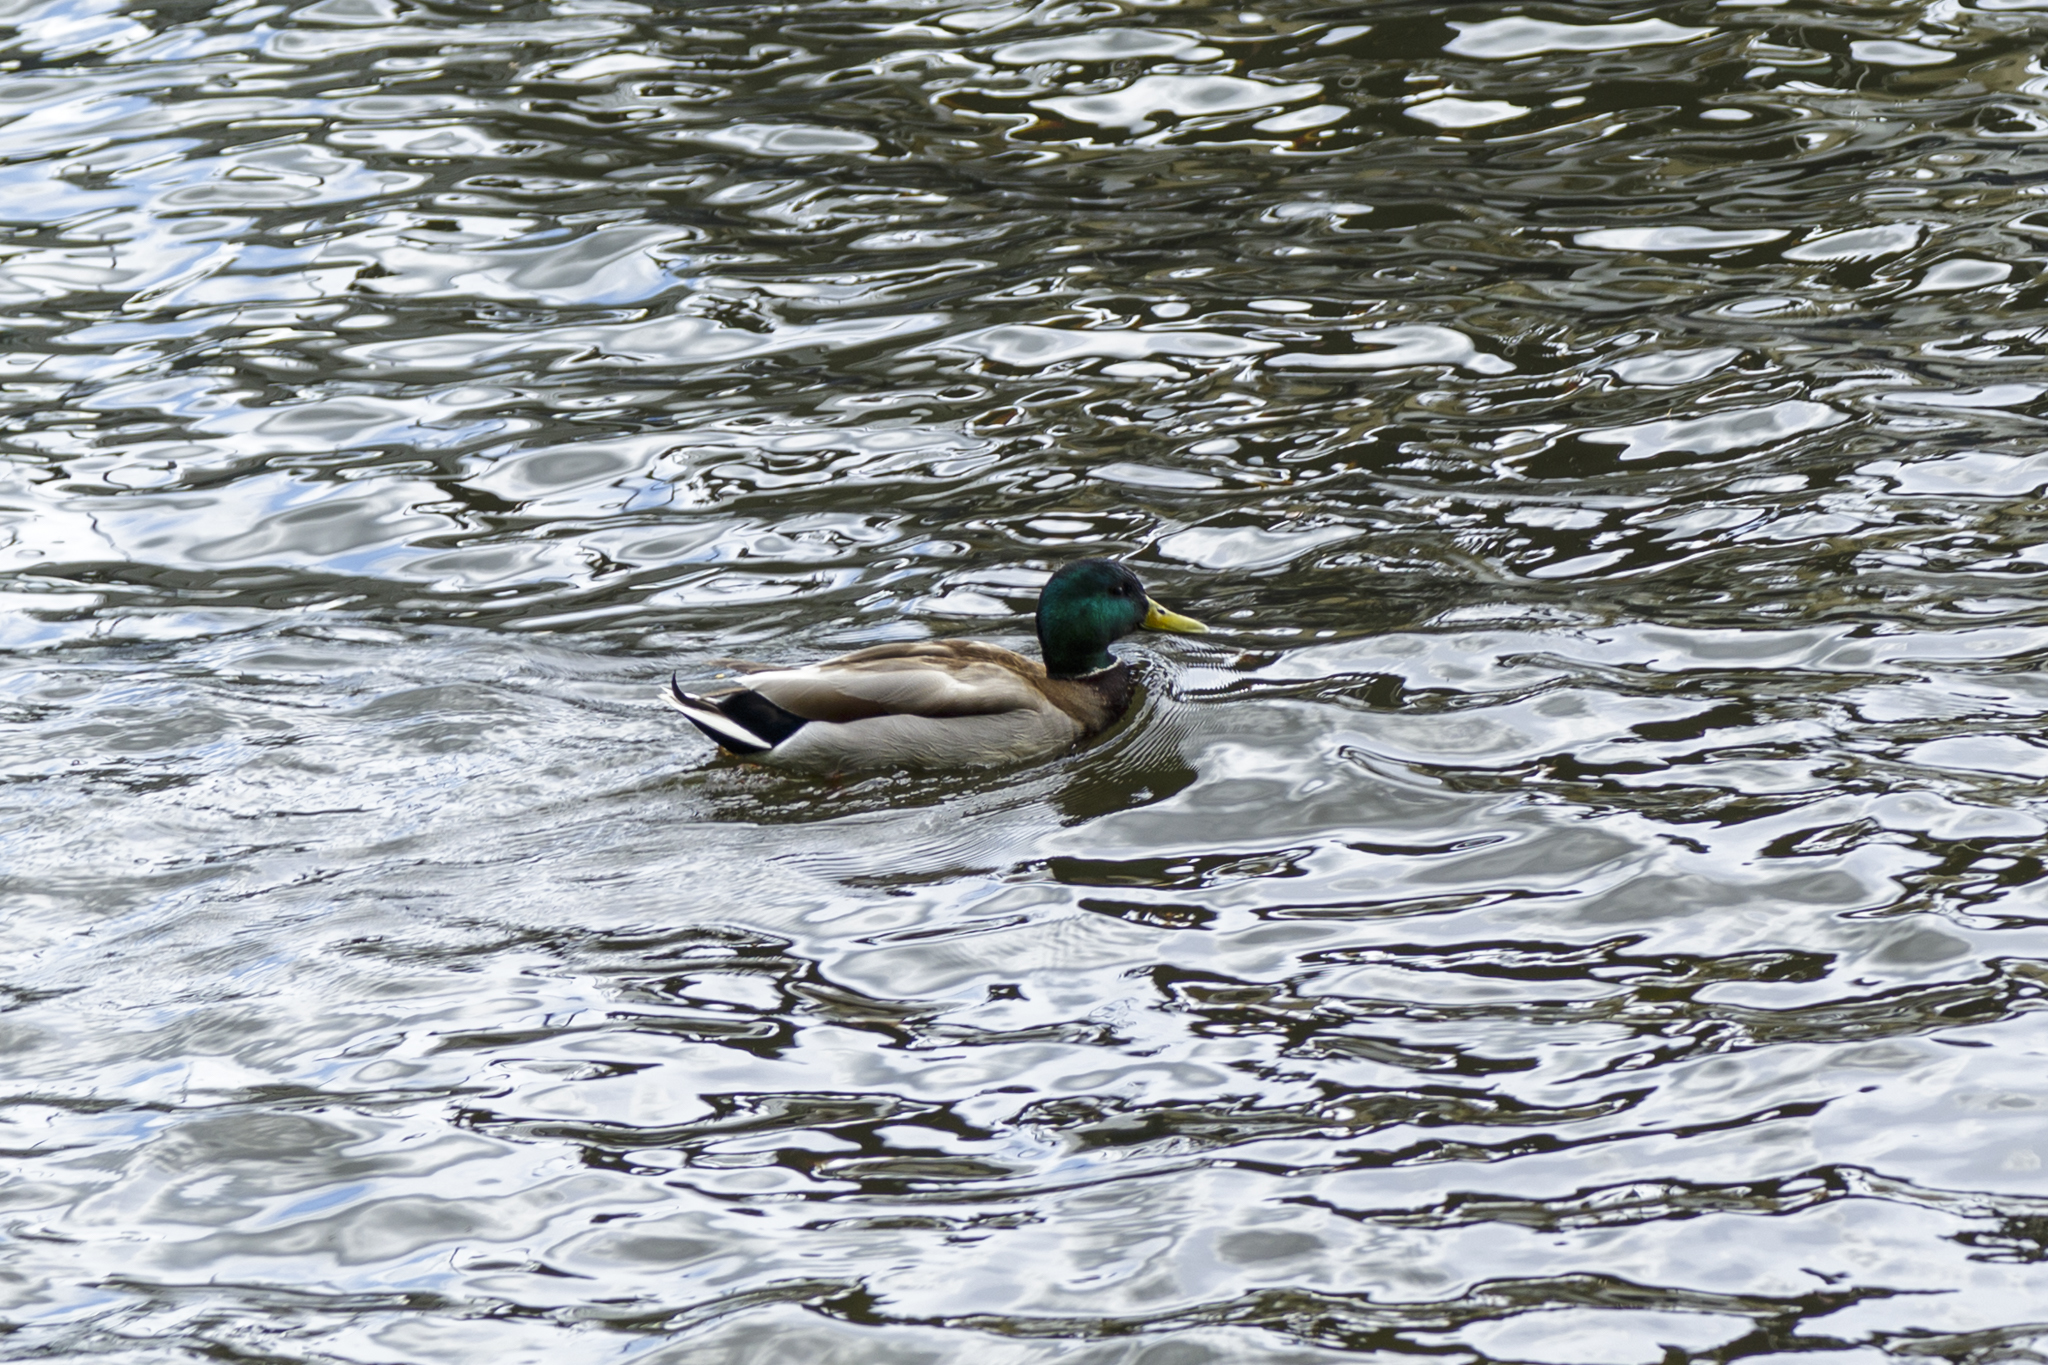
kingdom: Animalia
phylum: Chordata
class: Aves
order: Anseriformes
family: Anatidae
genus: Anas
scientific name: Anas platyrhynchos
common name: Mallard
